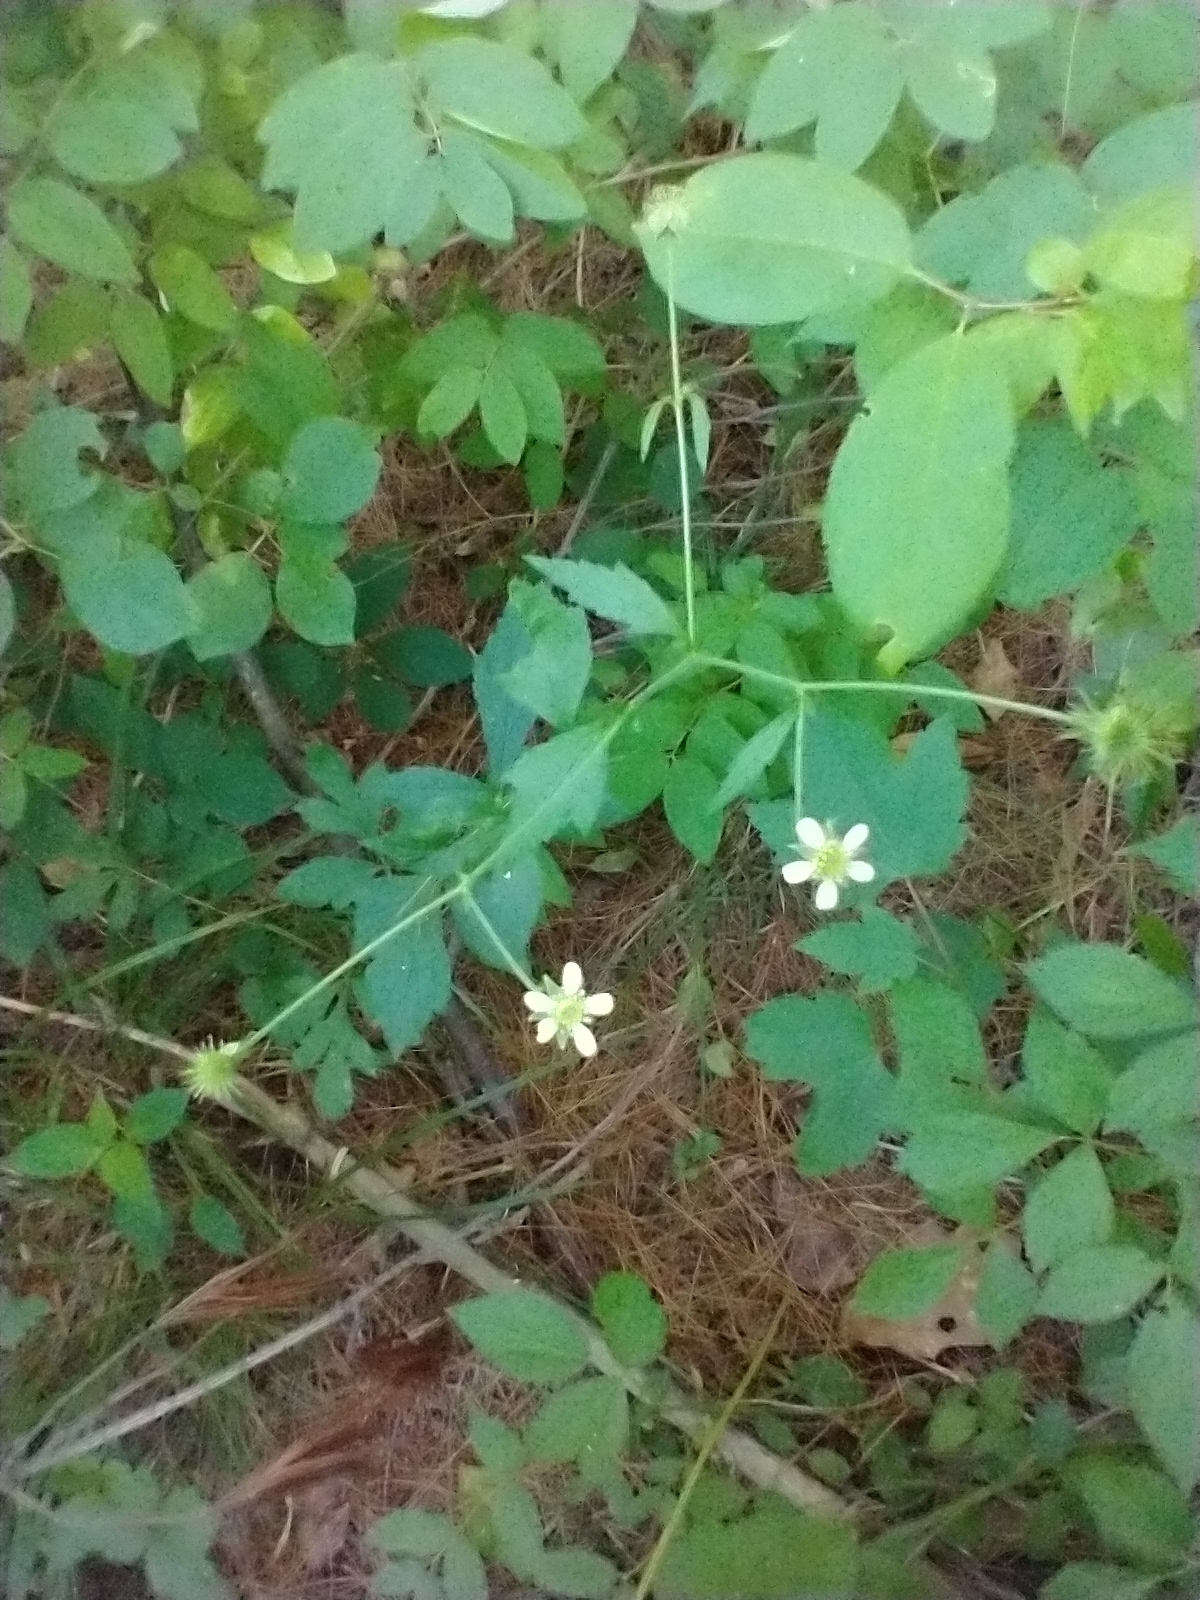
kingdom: Plantae
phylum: Tracheophyta
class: Magnoliopsida
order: Rosales
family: Rosaceae
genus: Geum
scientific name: Geum canadense
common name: White avens
